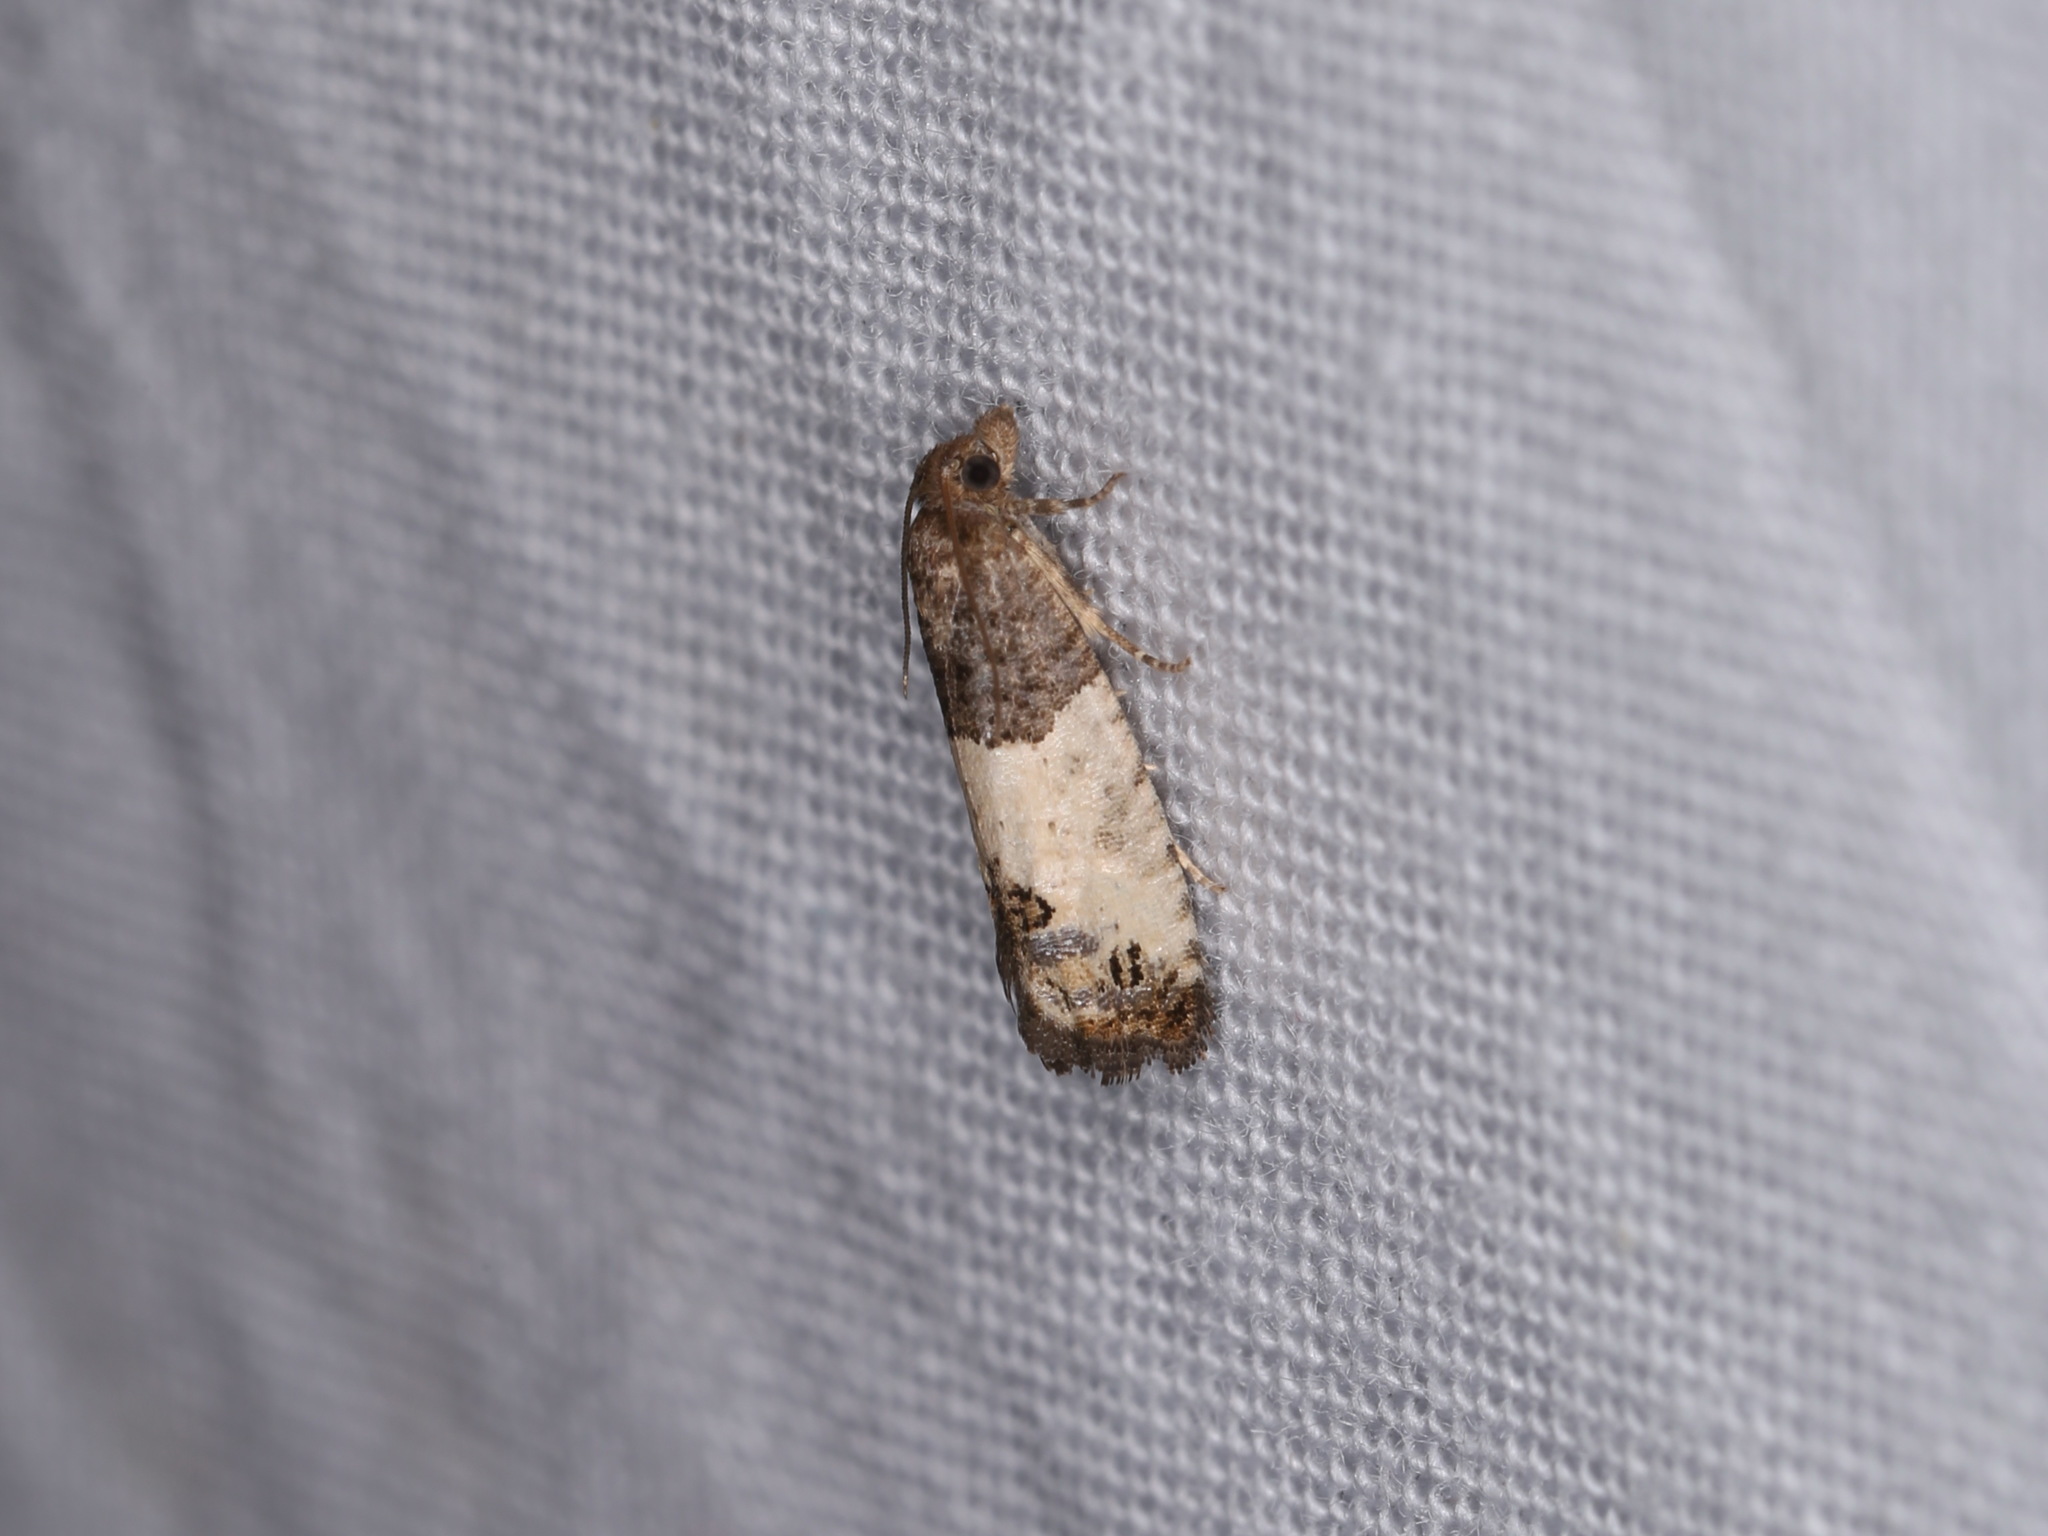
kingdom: Animalia
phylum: Arthropoda
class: Insecta
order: Lepidoptera
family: Tortricidae
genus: Spilonota
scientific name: Spilonota ocellana
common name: Bud moth
